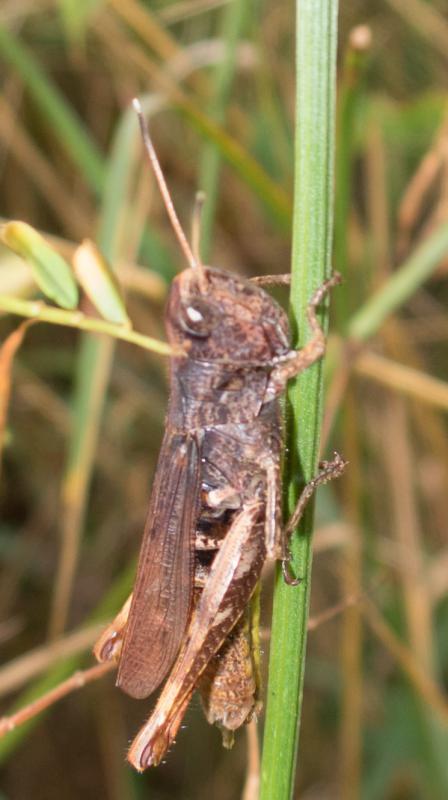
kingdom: Animalia
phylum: Arthropoda
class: Insecta
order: Orthoptera
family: Acrididae
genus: Gomphocerippus
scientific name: Gomphocerippus rufus
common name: Rufous grasshopper
